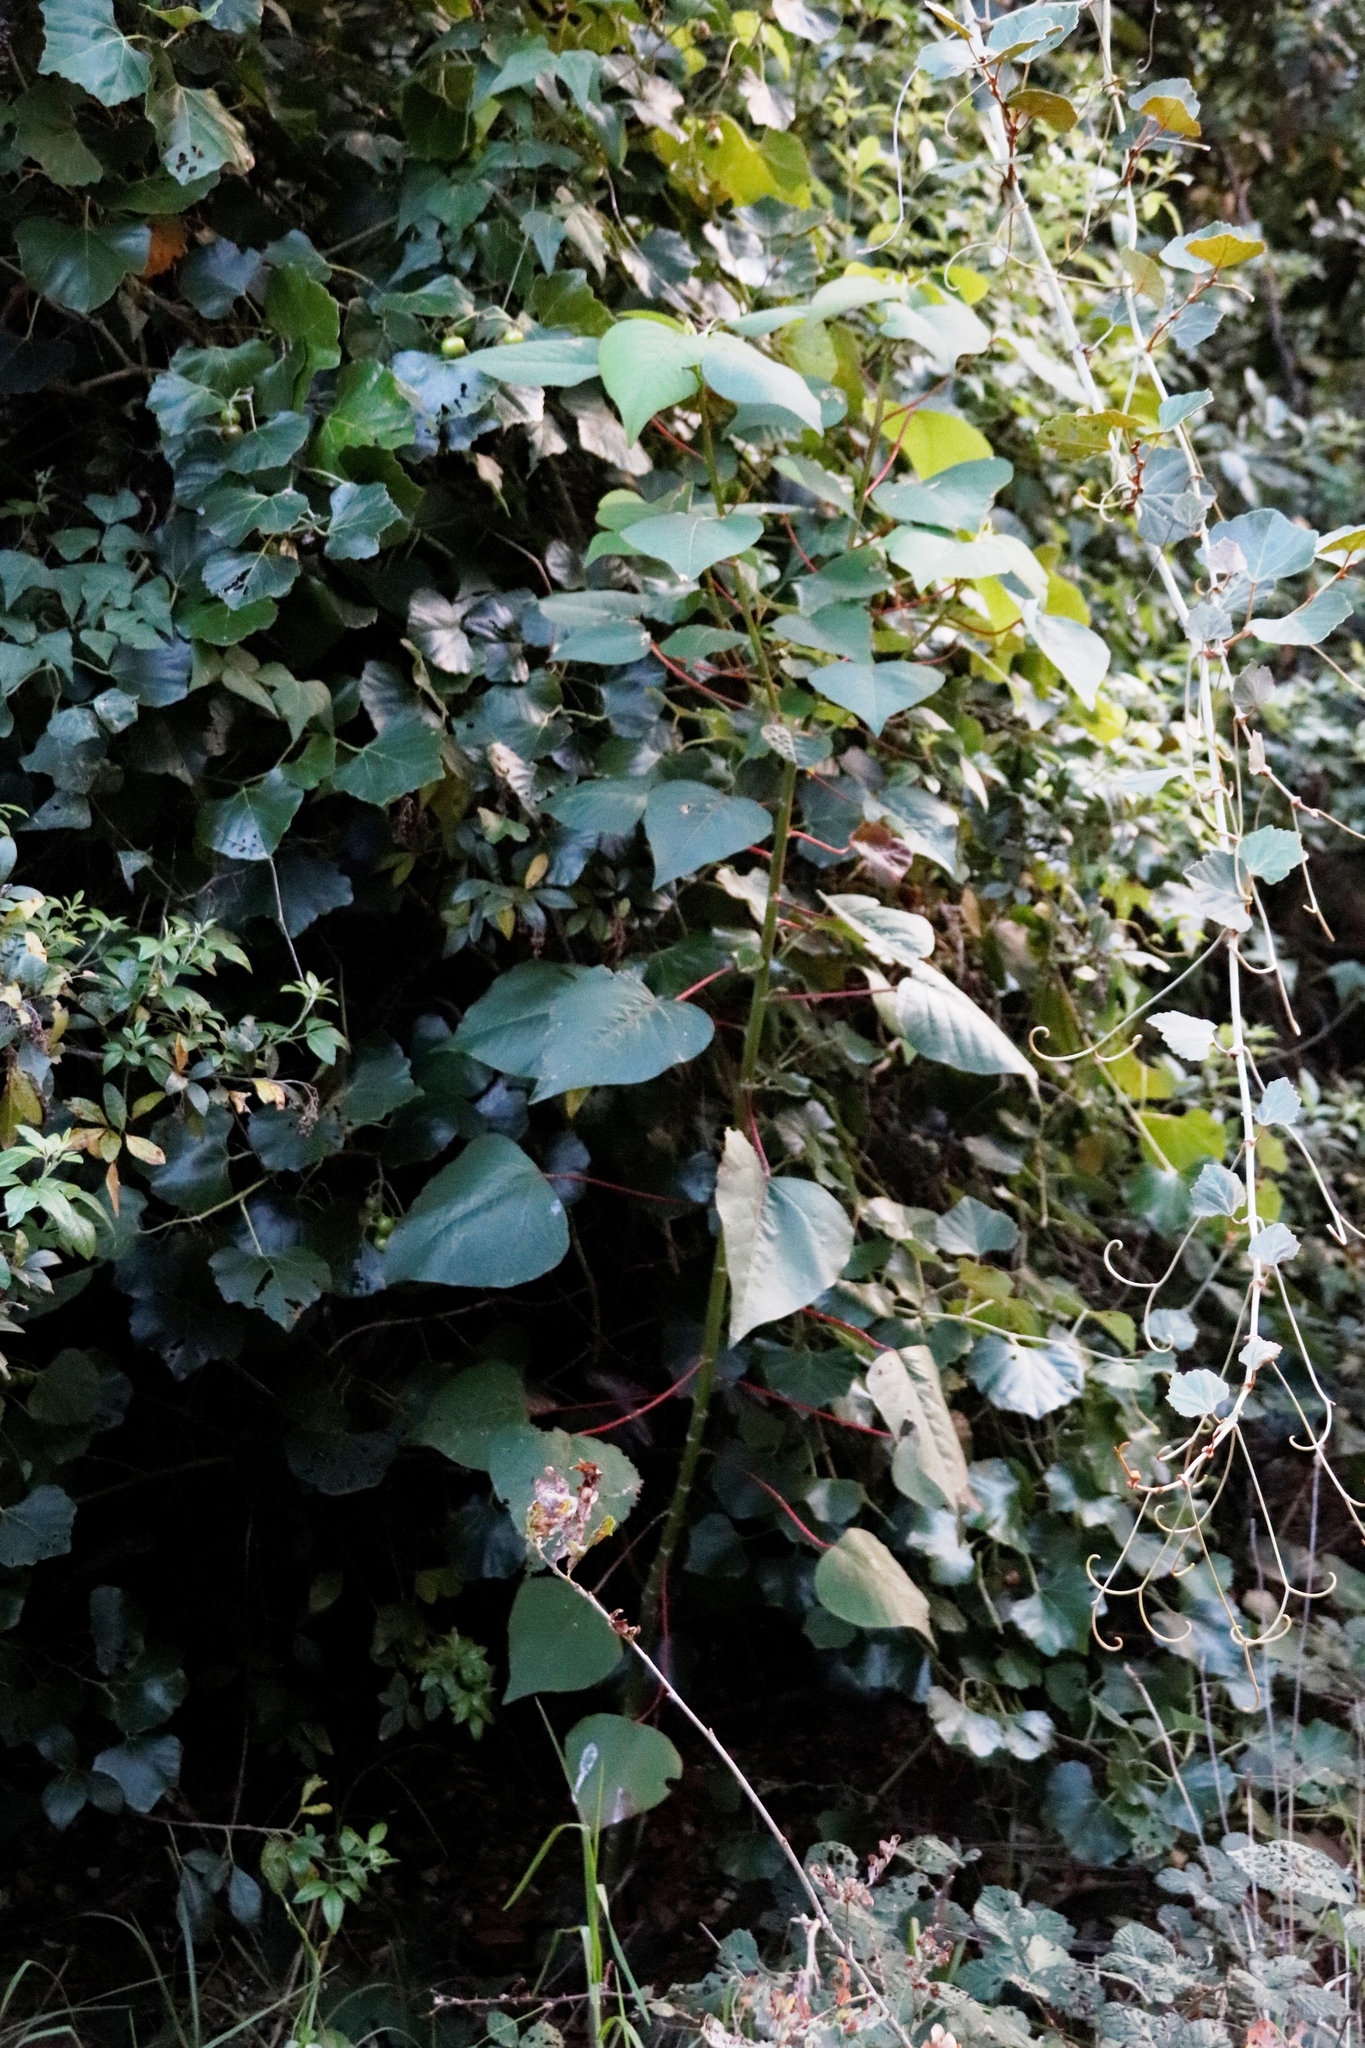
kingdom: Plantae
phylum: Tracheophyta
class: Magnoliopsida
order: Malpighiales
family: Euphorbiaceae
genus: Homalanthus
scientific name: Homalanthus populifolius
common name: Queensland poplar
